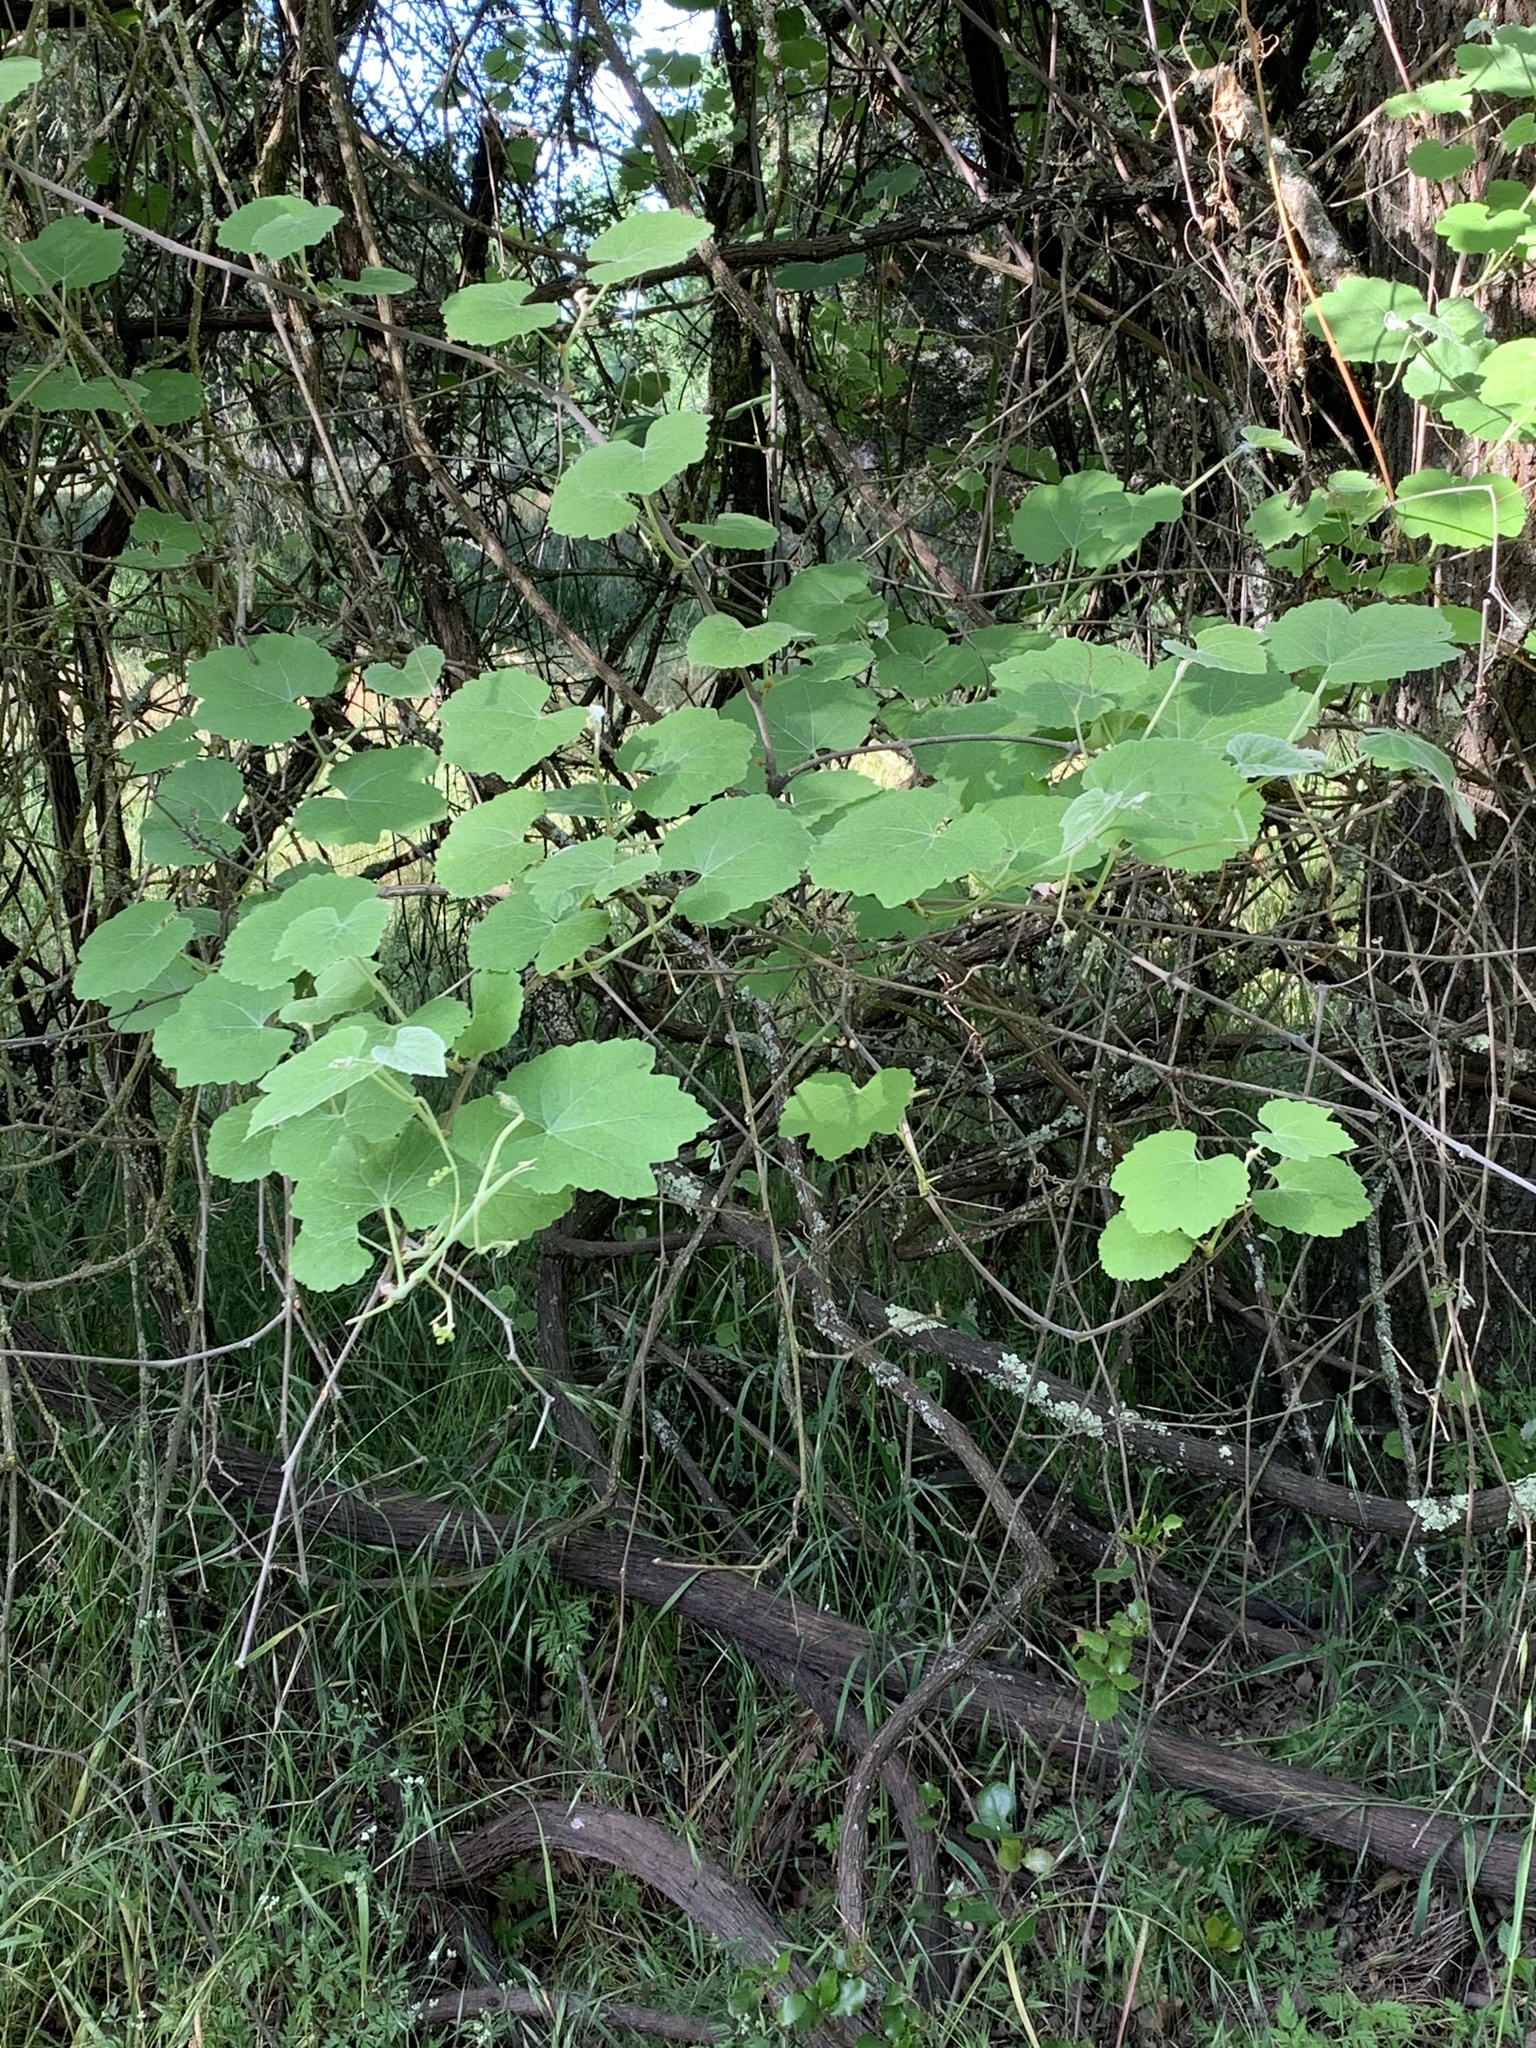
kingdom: Plantae
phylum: Tracheophyta
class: Magnoliopsida
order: Vitales
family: Vitaceae
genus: Vitis
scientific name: Vitis californica
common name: California wild grape
